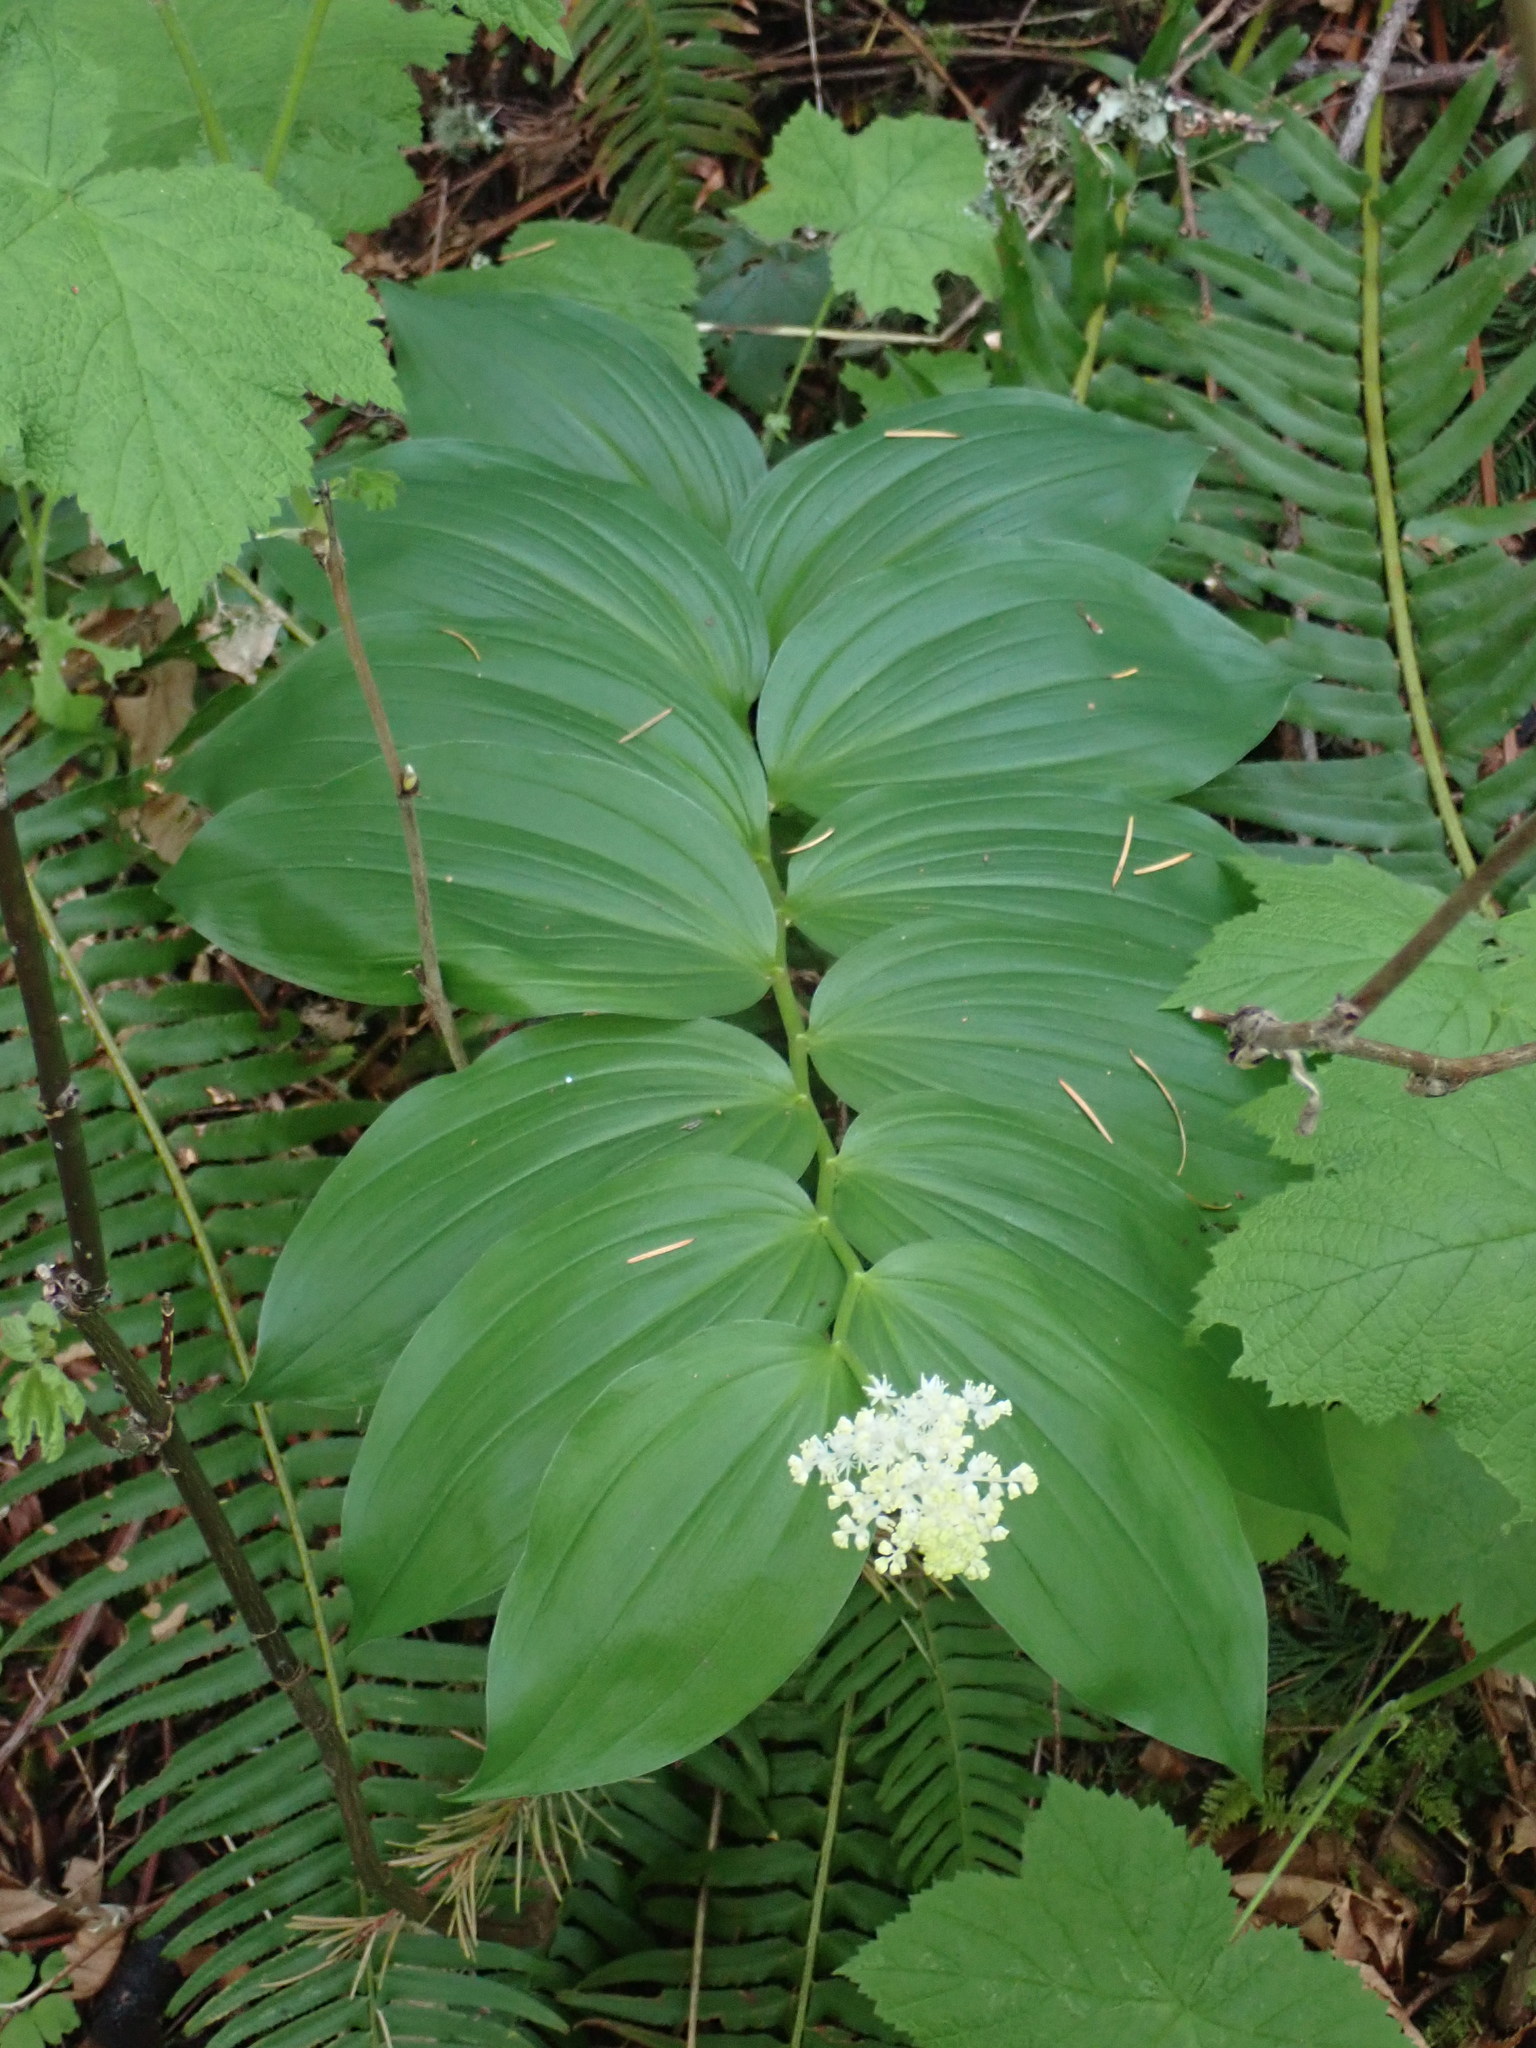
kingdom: Plantae
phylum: Tracheophyta
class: Liliopsida
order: Asparagales
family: Asparagaceae
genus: Maianthemum
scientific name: Maianthemum racemosum
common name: False spikenard
